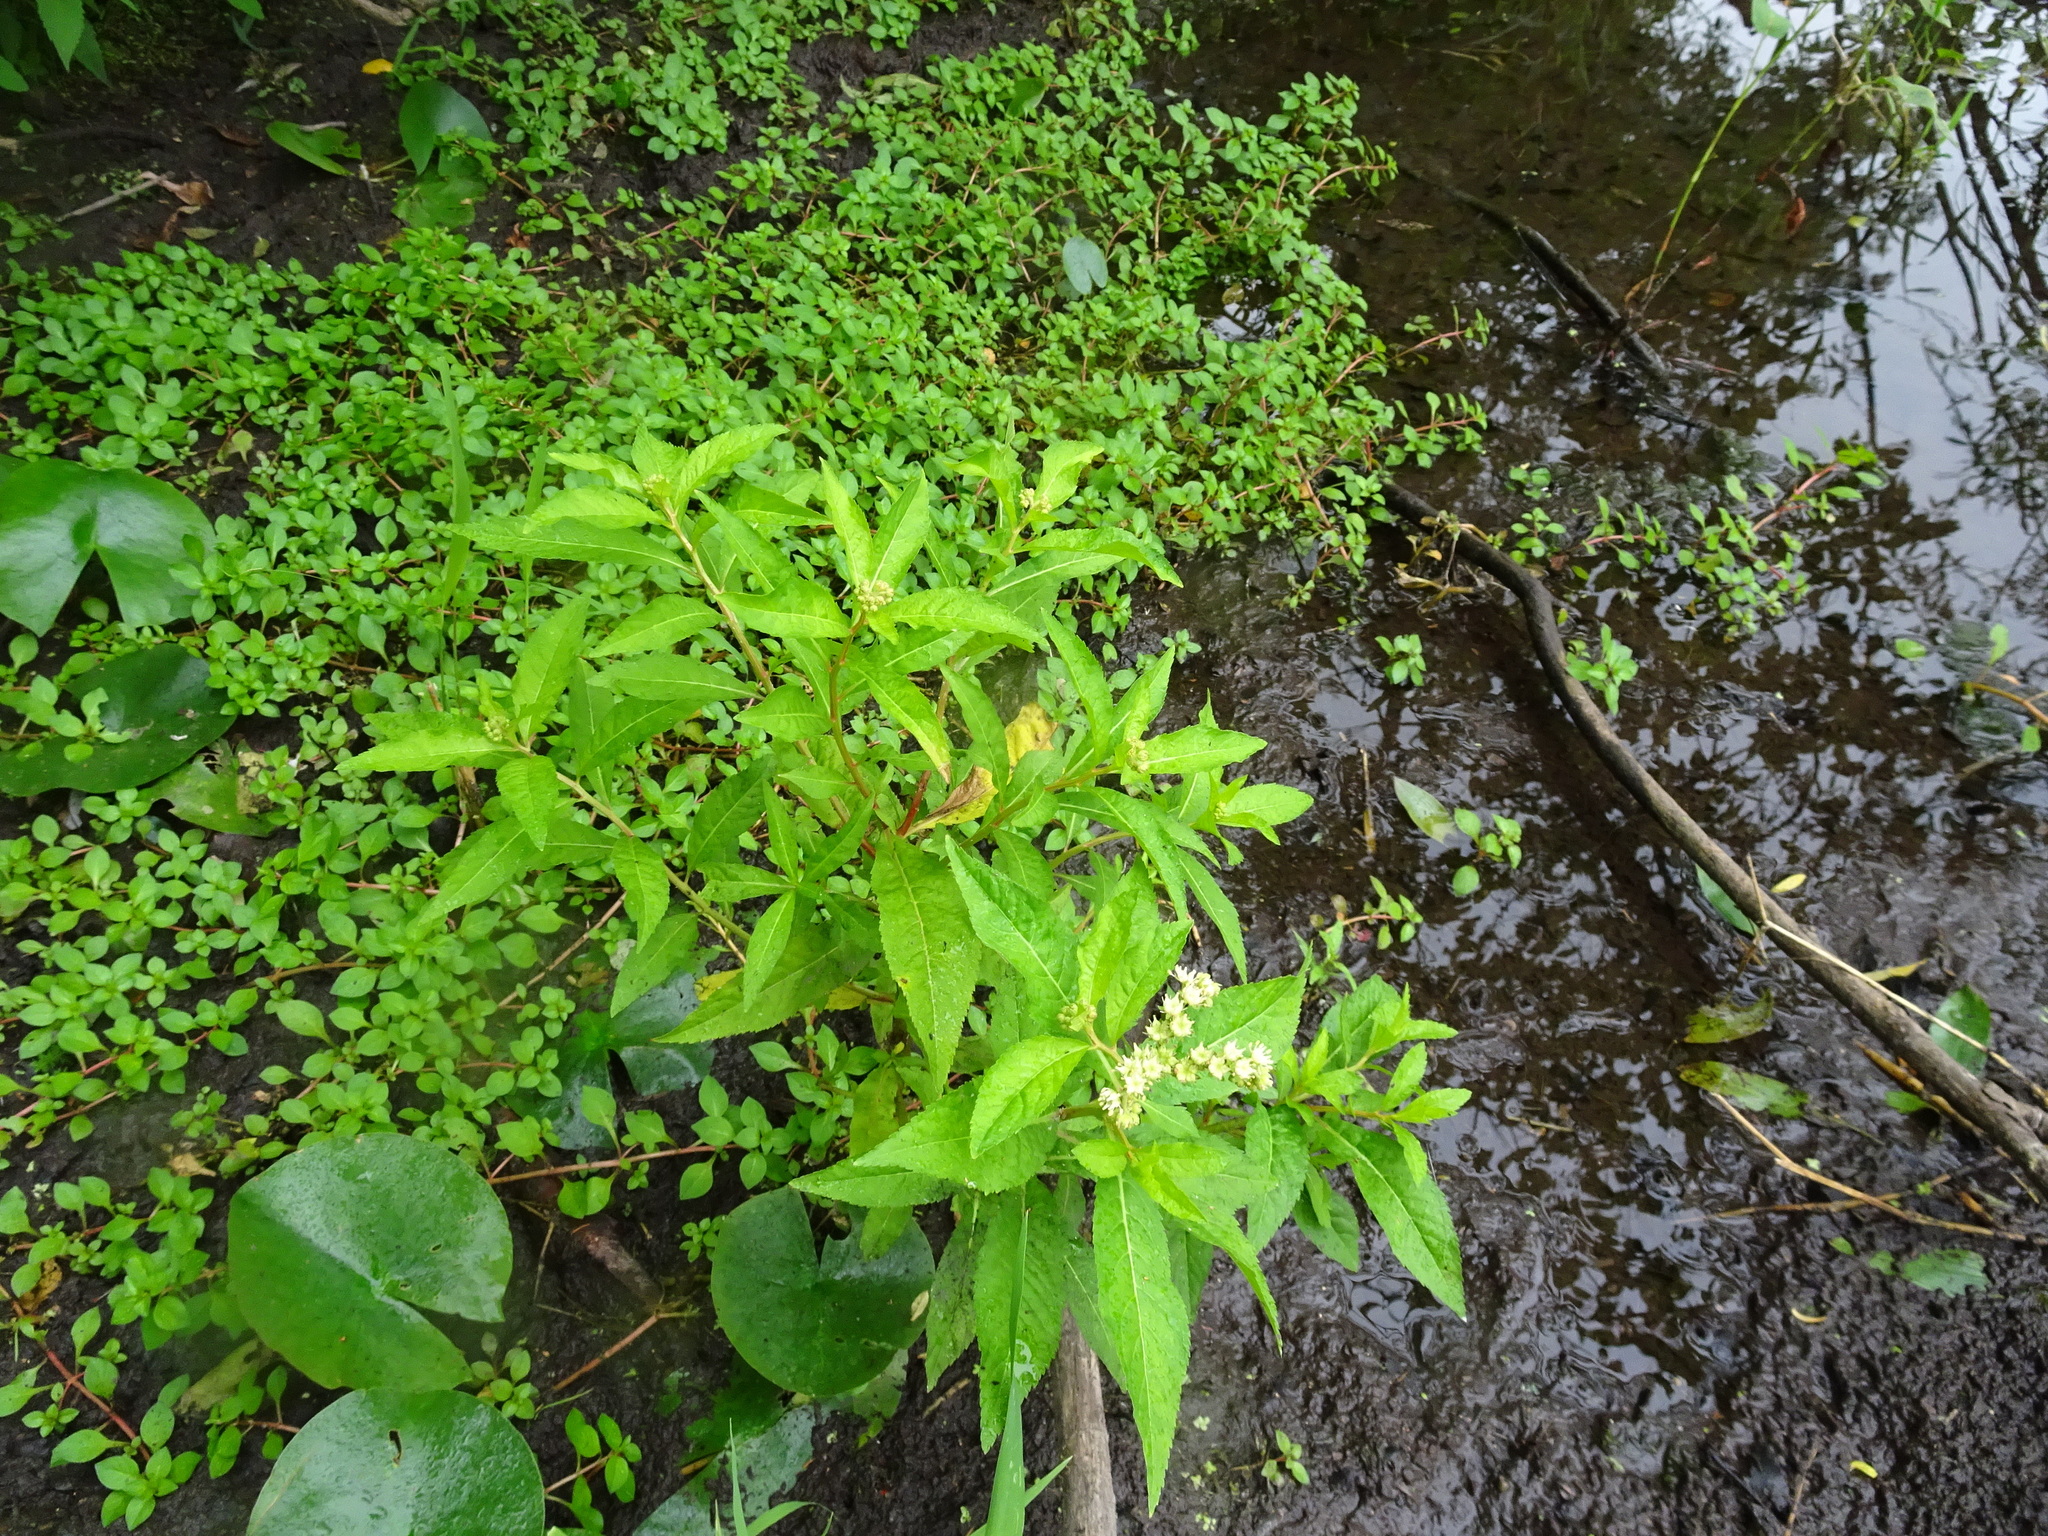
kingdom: Plantae
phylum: Tracheophyta
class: Magnoliopsida
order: Saxifragales
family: Penthoraceae
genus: Penthorum
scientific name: Penthorum sedoides
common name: Ditch stonecrop
